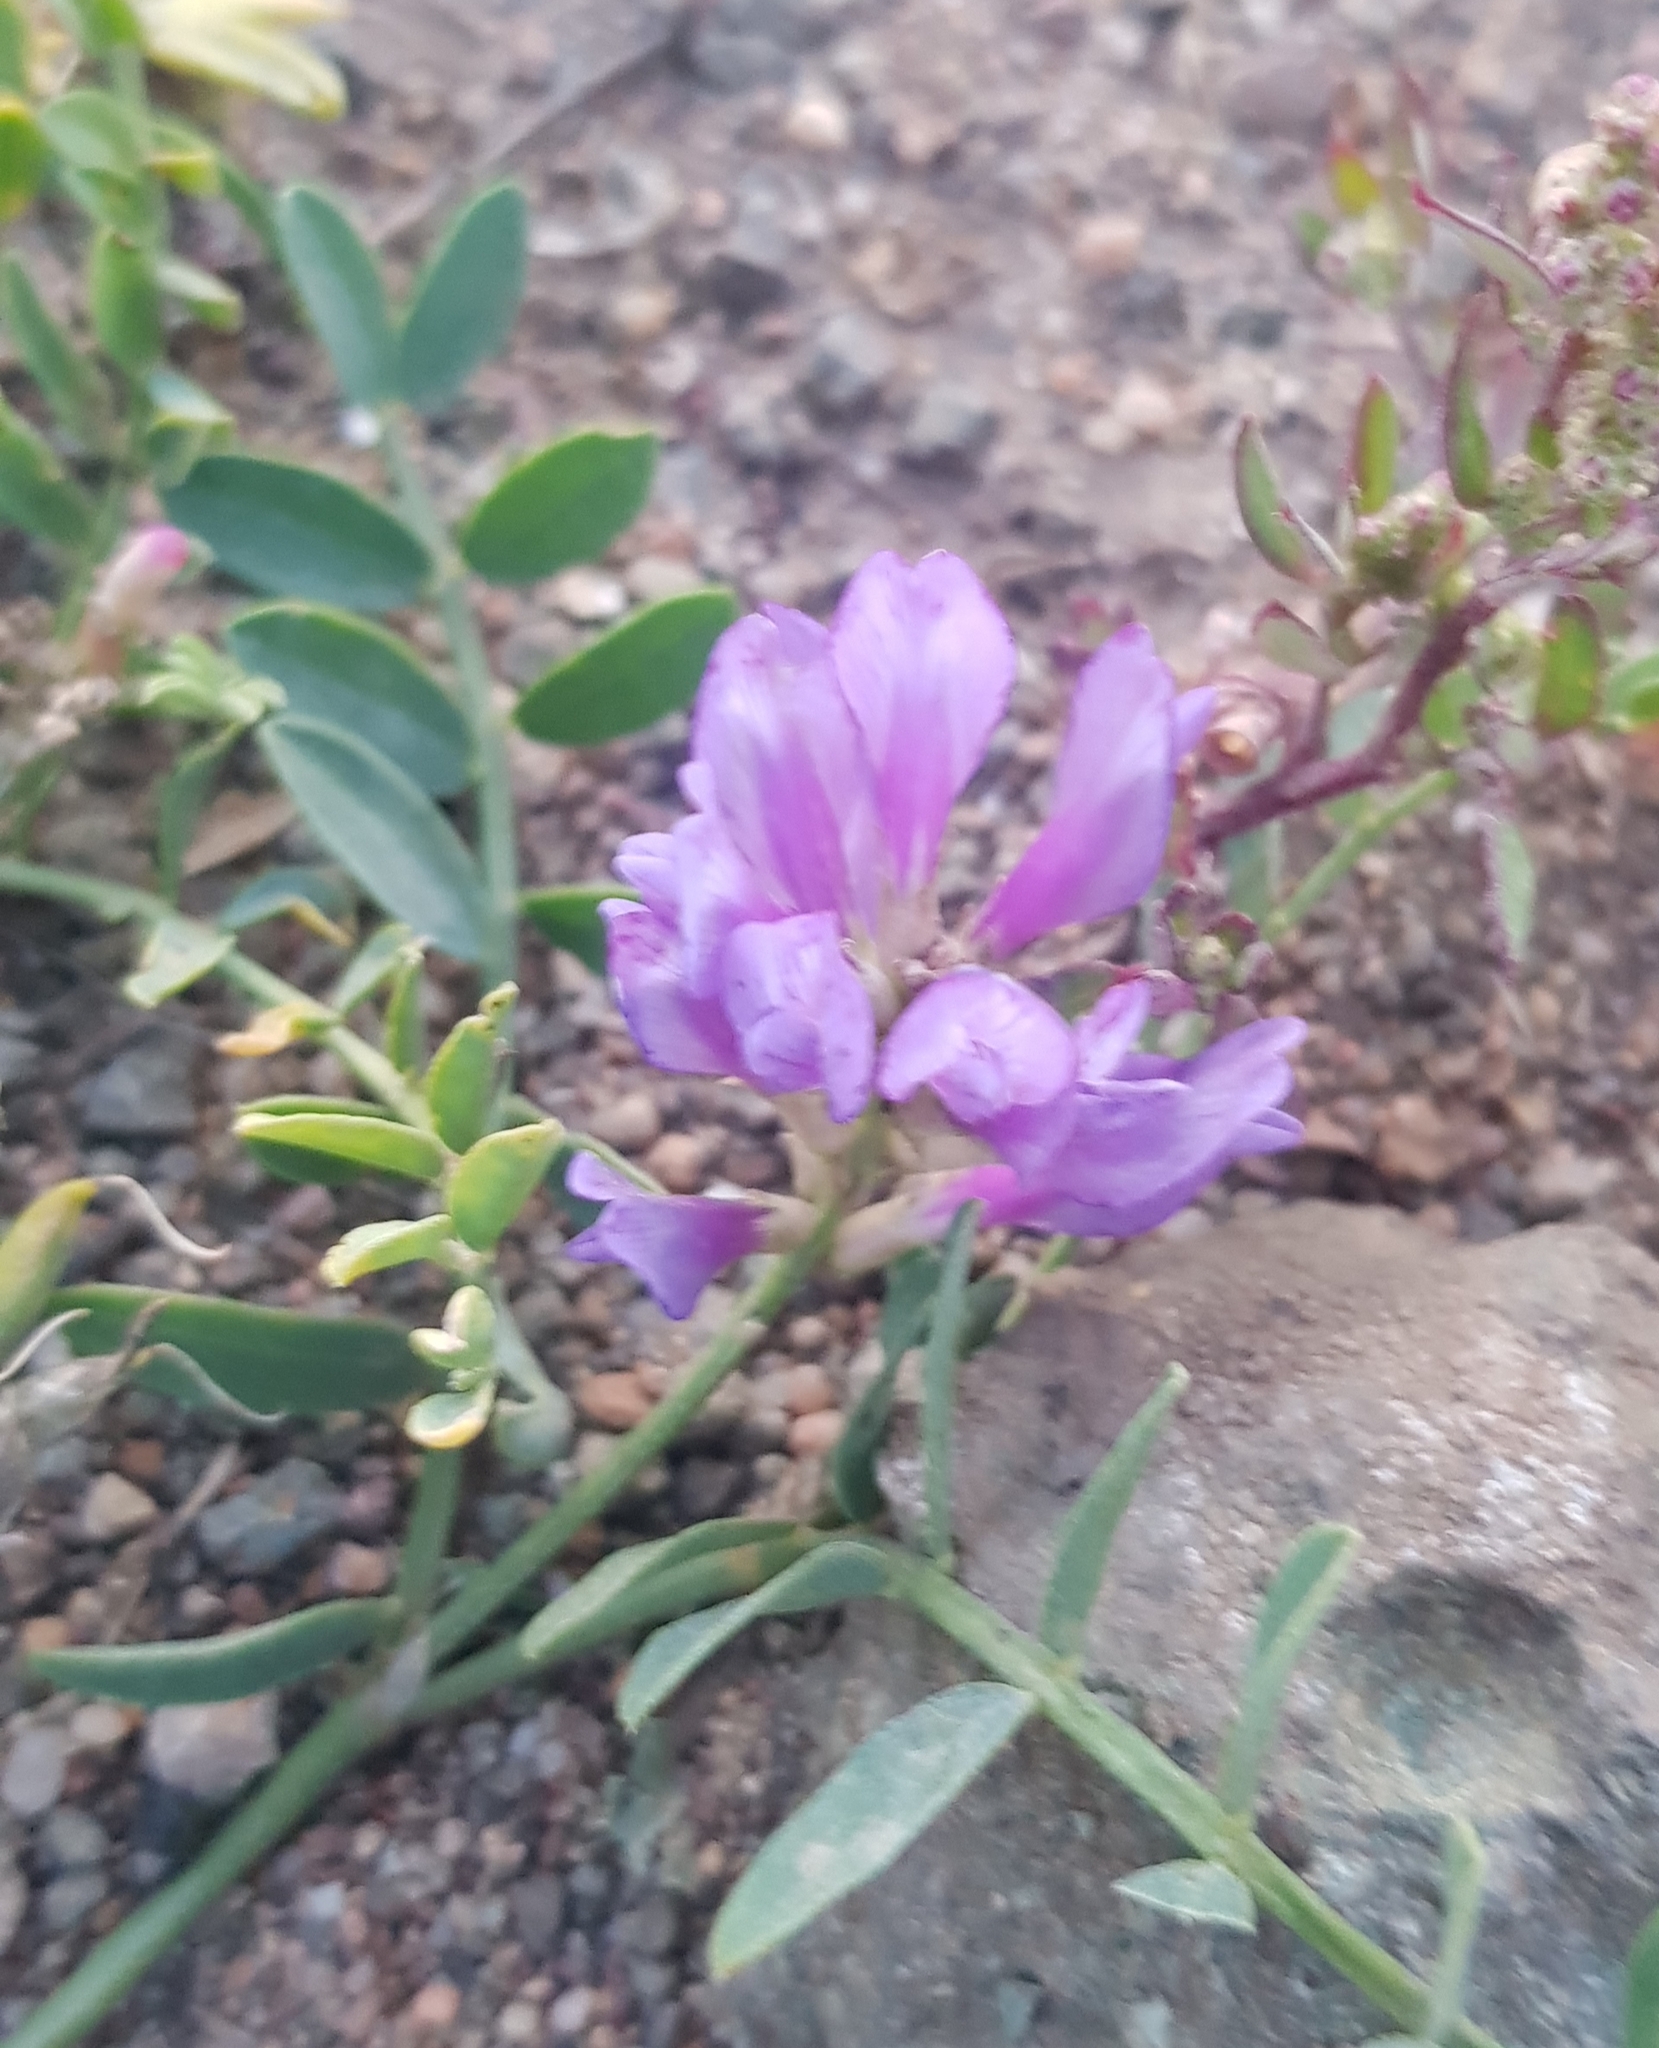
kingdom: Plantae
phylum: Tracheophyta
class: Magnoliopsida
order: Fabales
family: Fabaceae
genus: Astragalus
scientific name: Astragalus laxmannii
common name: Laxmann's milk-vetch
